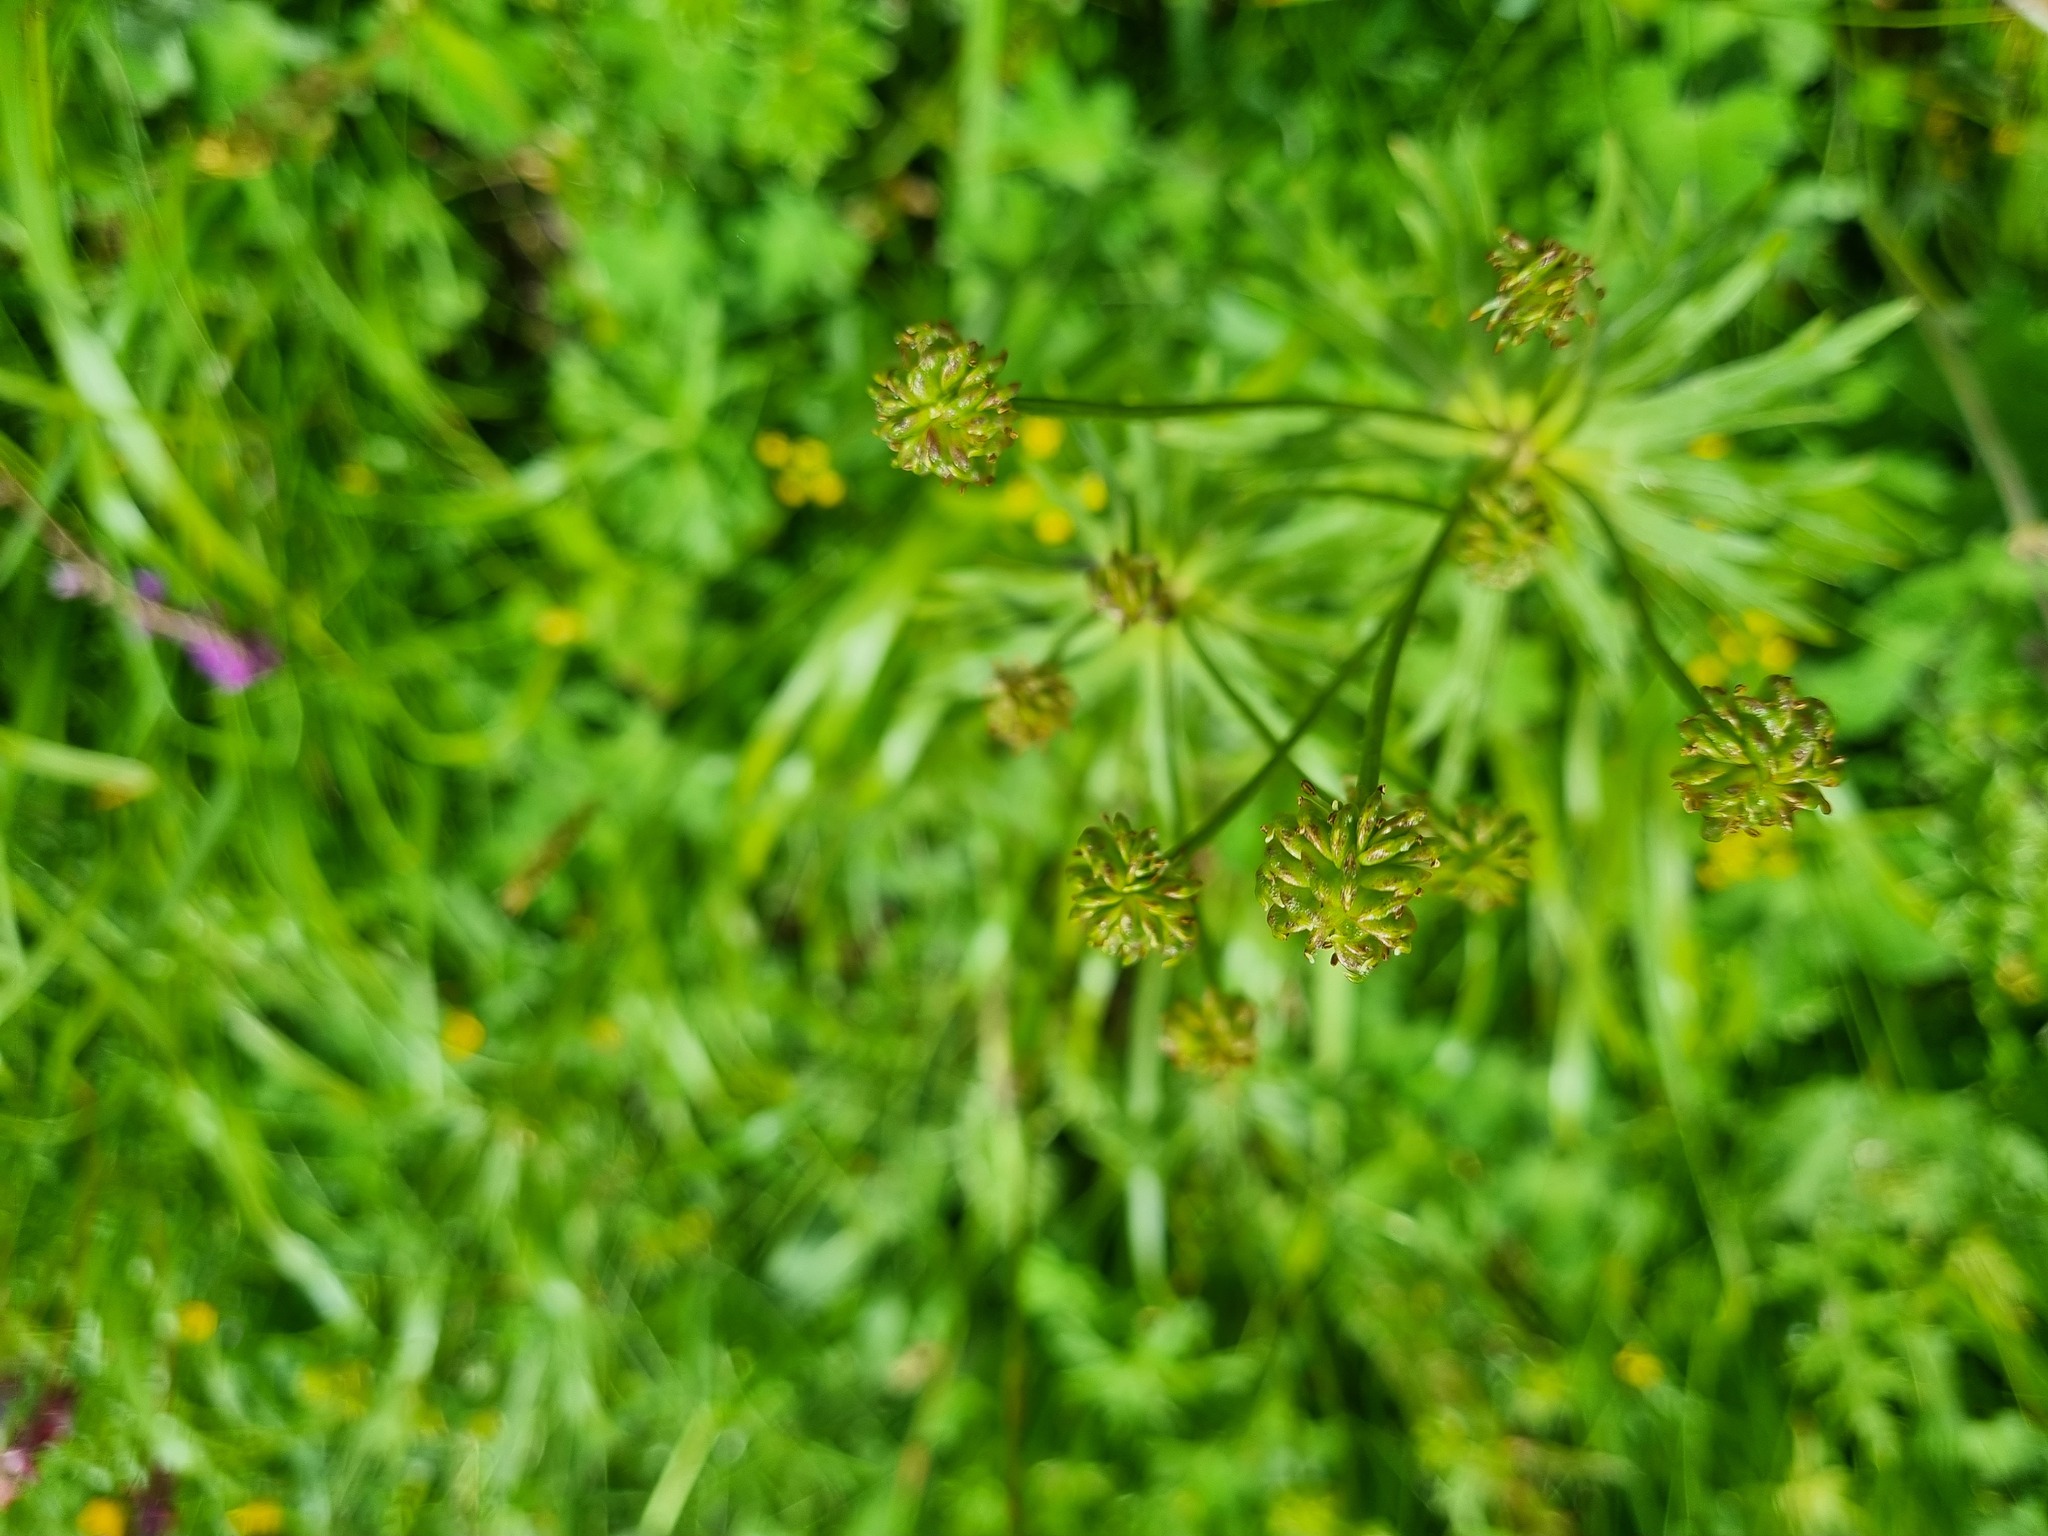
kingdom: Plantae
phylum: Tracheophyta
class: Magnoliopsida
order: Ranunculales
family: Ranunculaceae
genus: Anemonastrum
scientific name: Anemonastrum narcissiflorum
